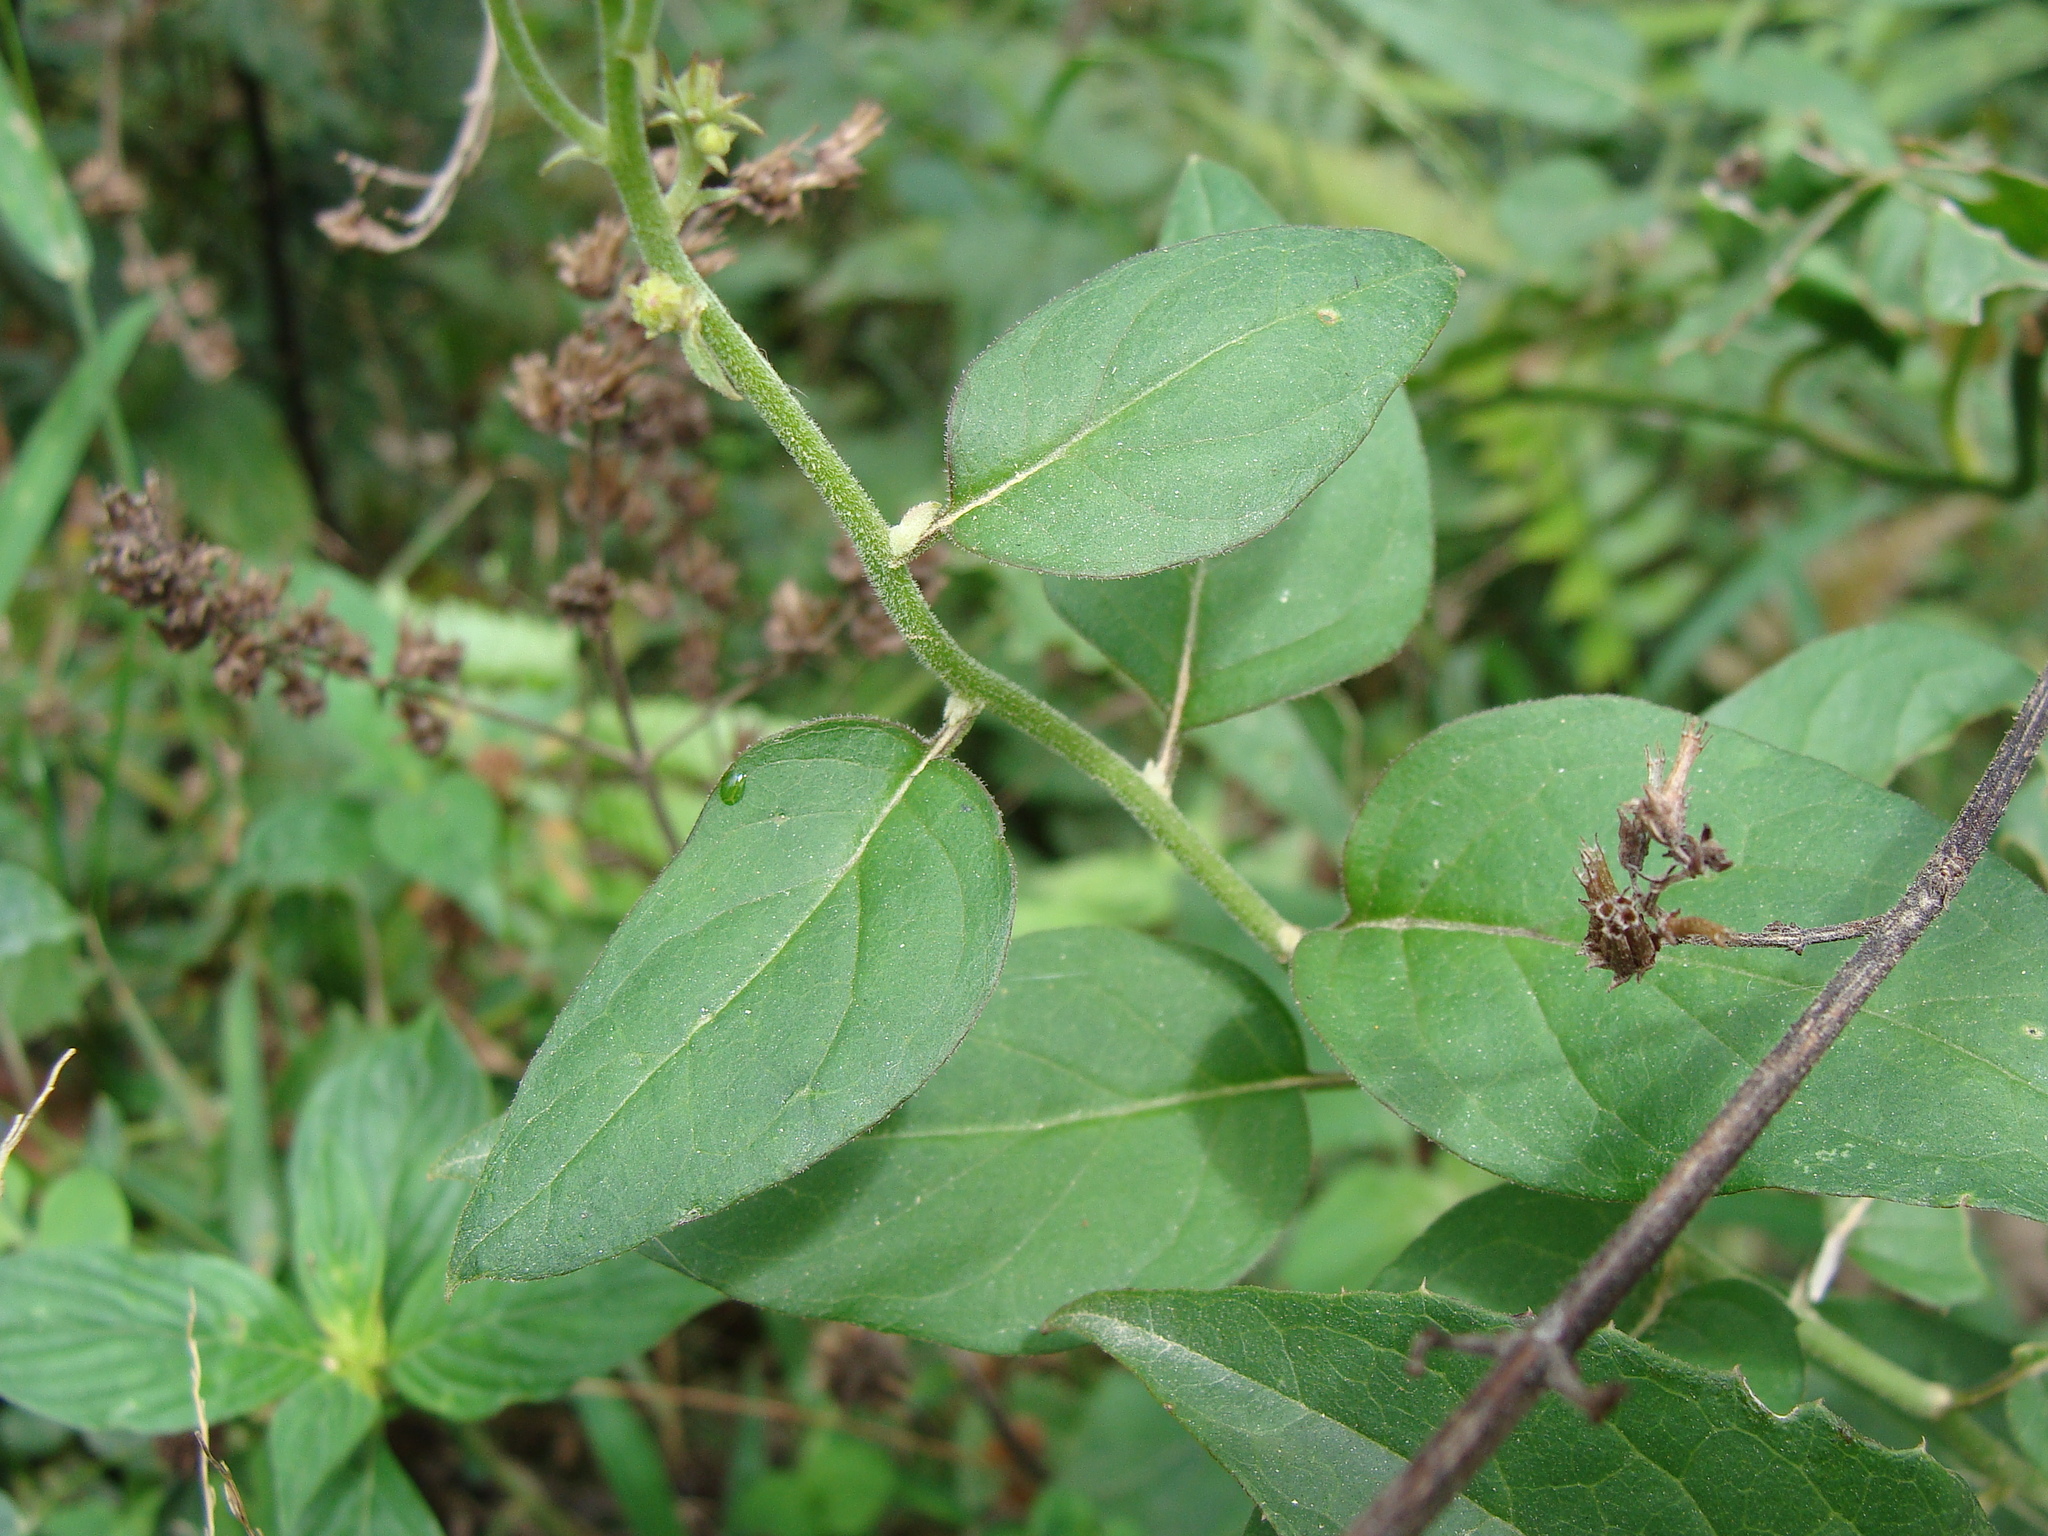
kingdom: Plantae
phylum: Tracheophyta
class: Magnoliopsida
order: Asterales
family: Asteraceae
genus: Pseudogynoxys
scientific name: Pseudogynoxys haenkei
